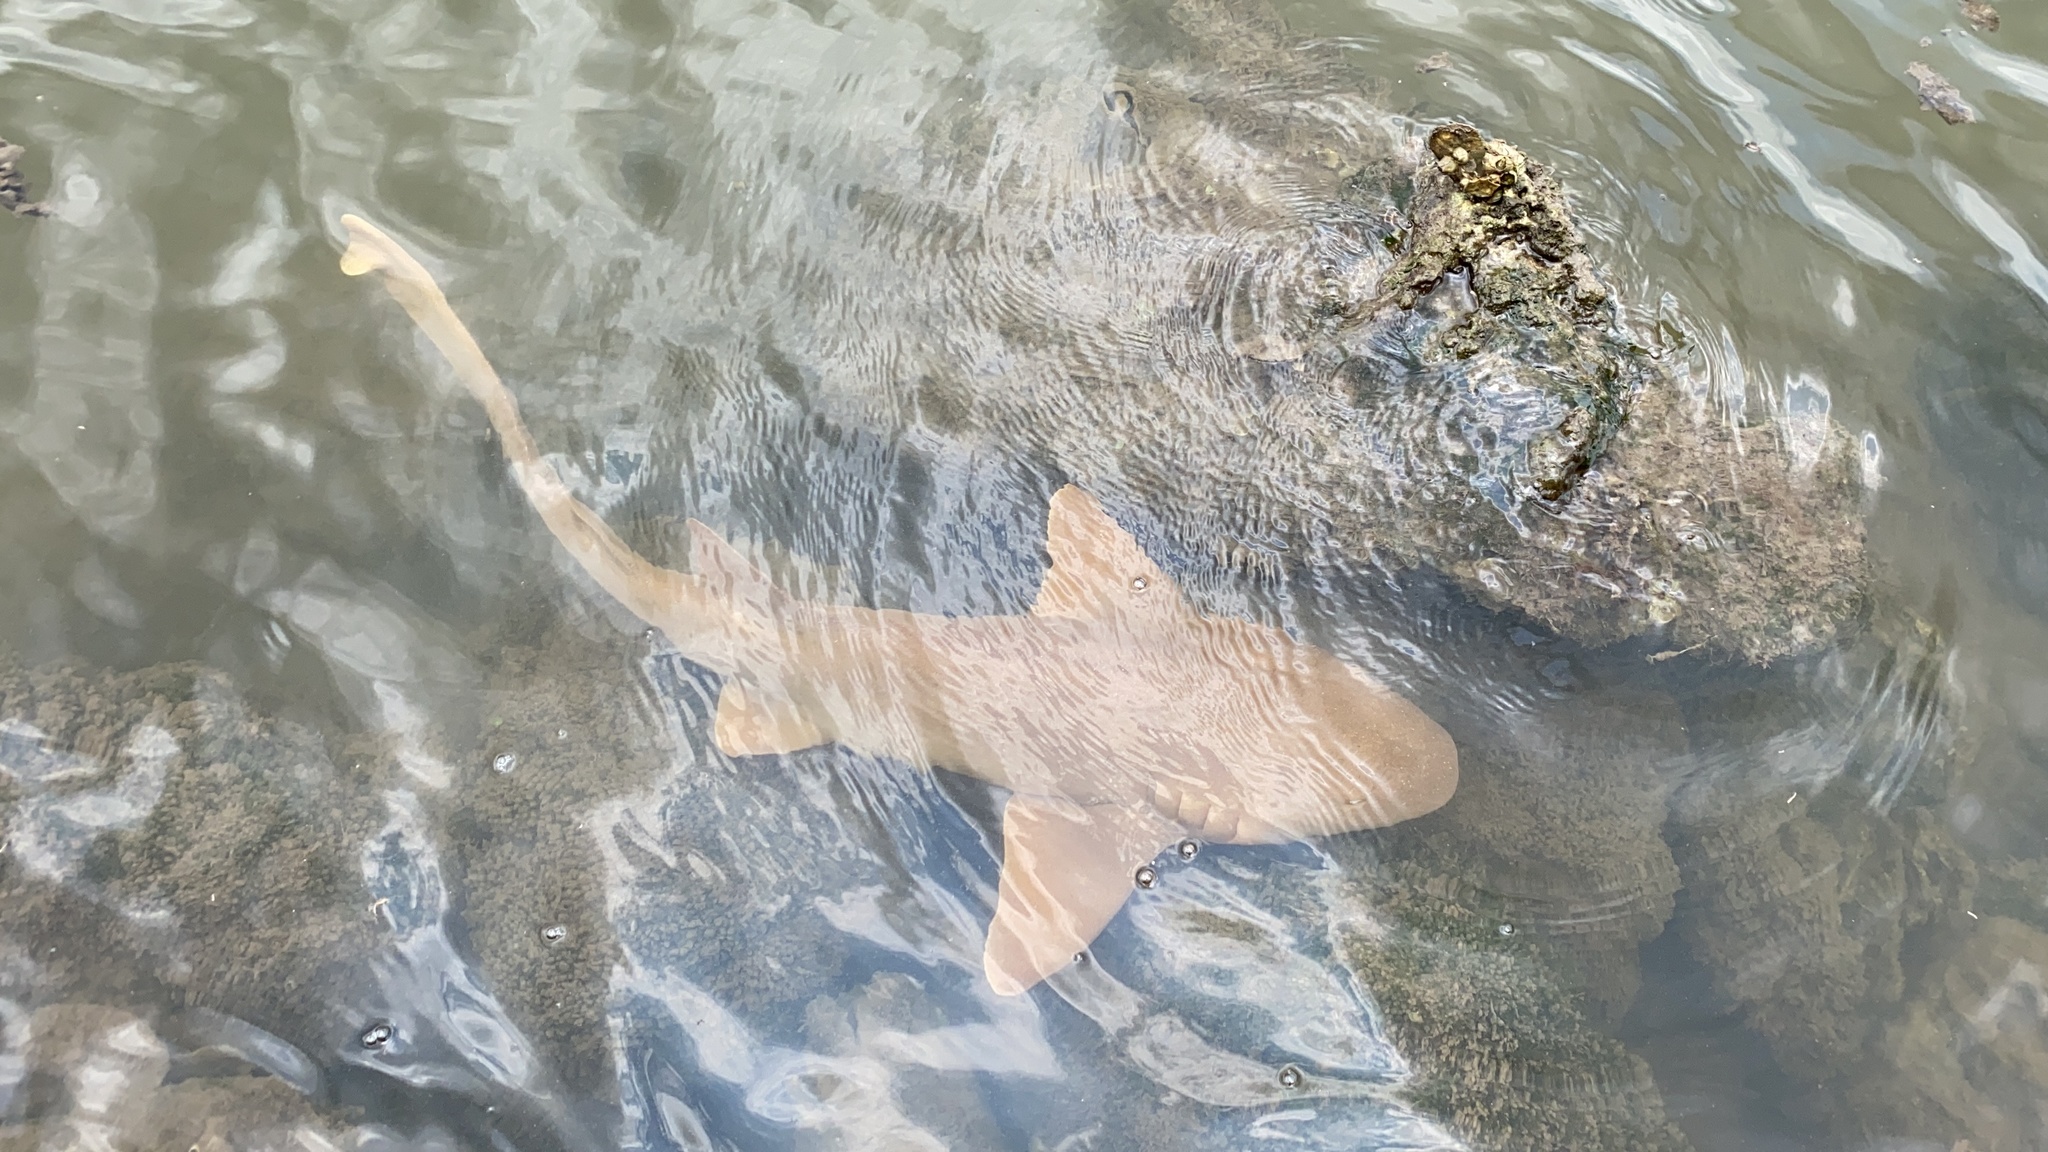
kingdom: Animalia
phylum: Chordata
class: Elasmobranchii
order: Orectolobiformes
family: Ginglymostomatidae
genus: Ginglymostoma
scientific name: Ginglymostoma cirratum
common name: Nurse shark
